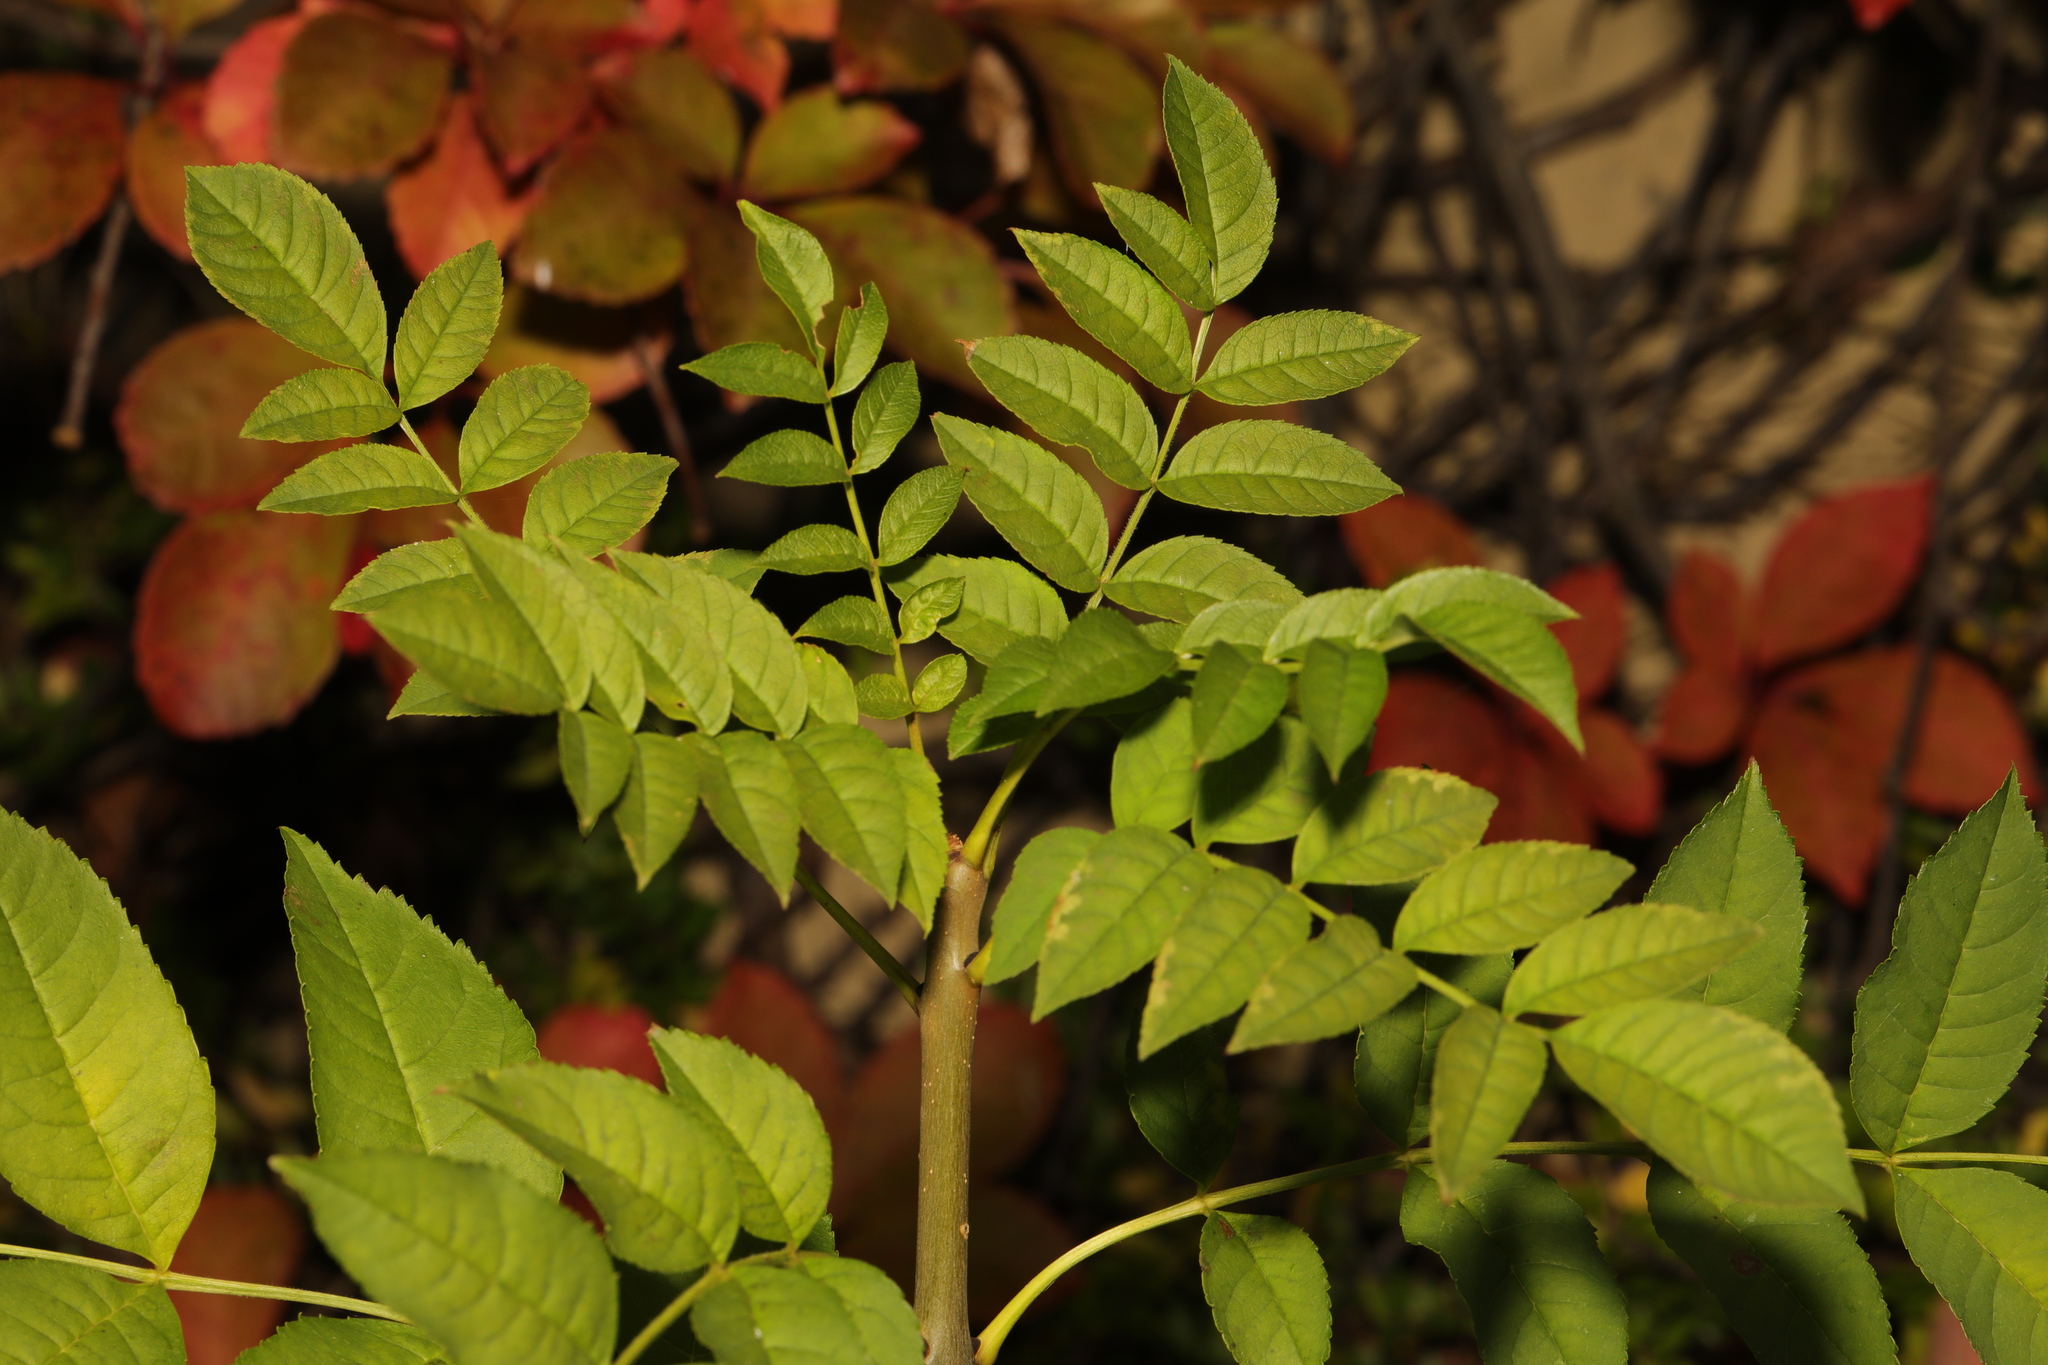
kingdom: Plantae
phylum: Tracheophyta
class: Magnoliopsida
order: Lamiales
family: Oleaceae
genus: Fraxinus
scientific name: Fraxinus excelsior
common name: European ash
